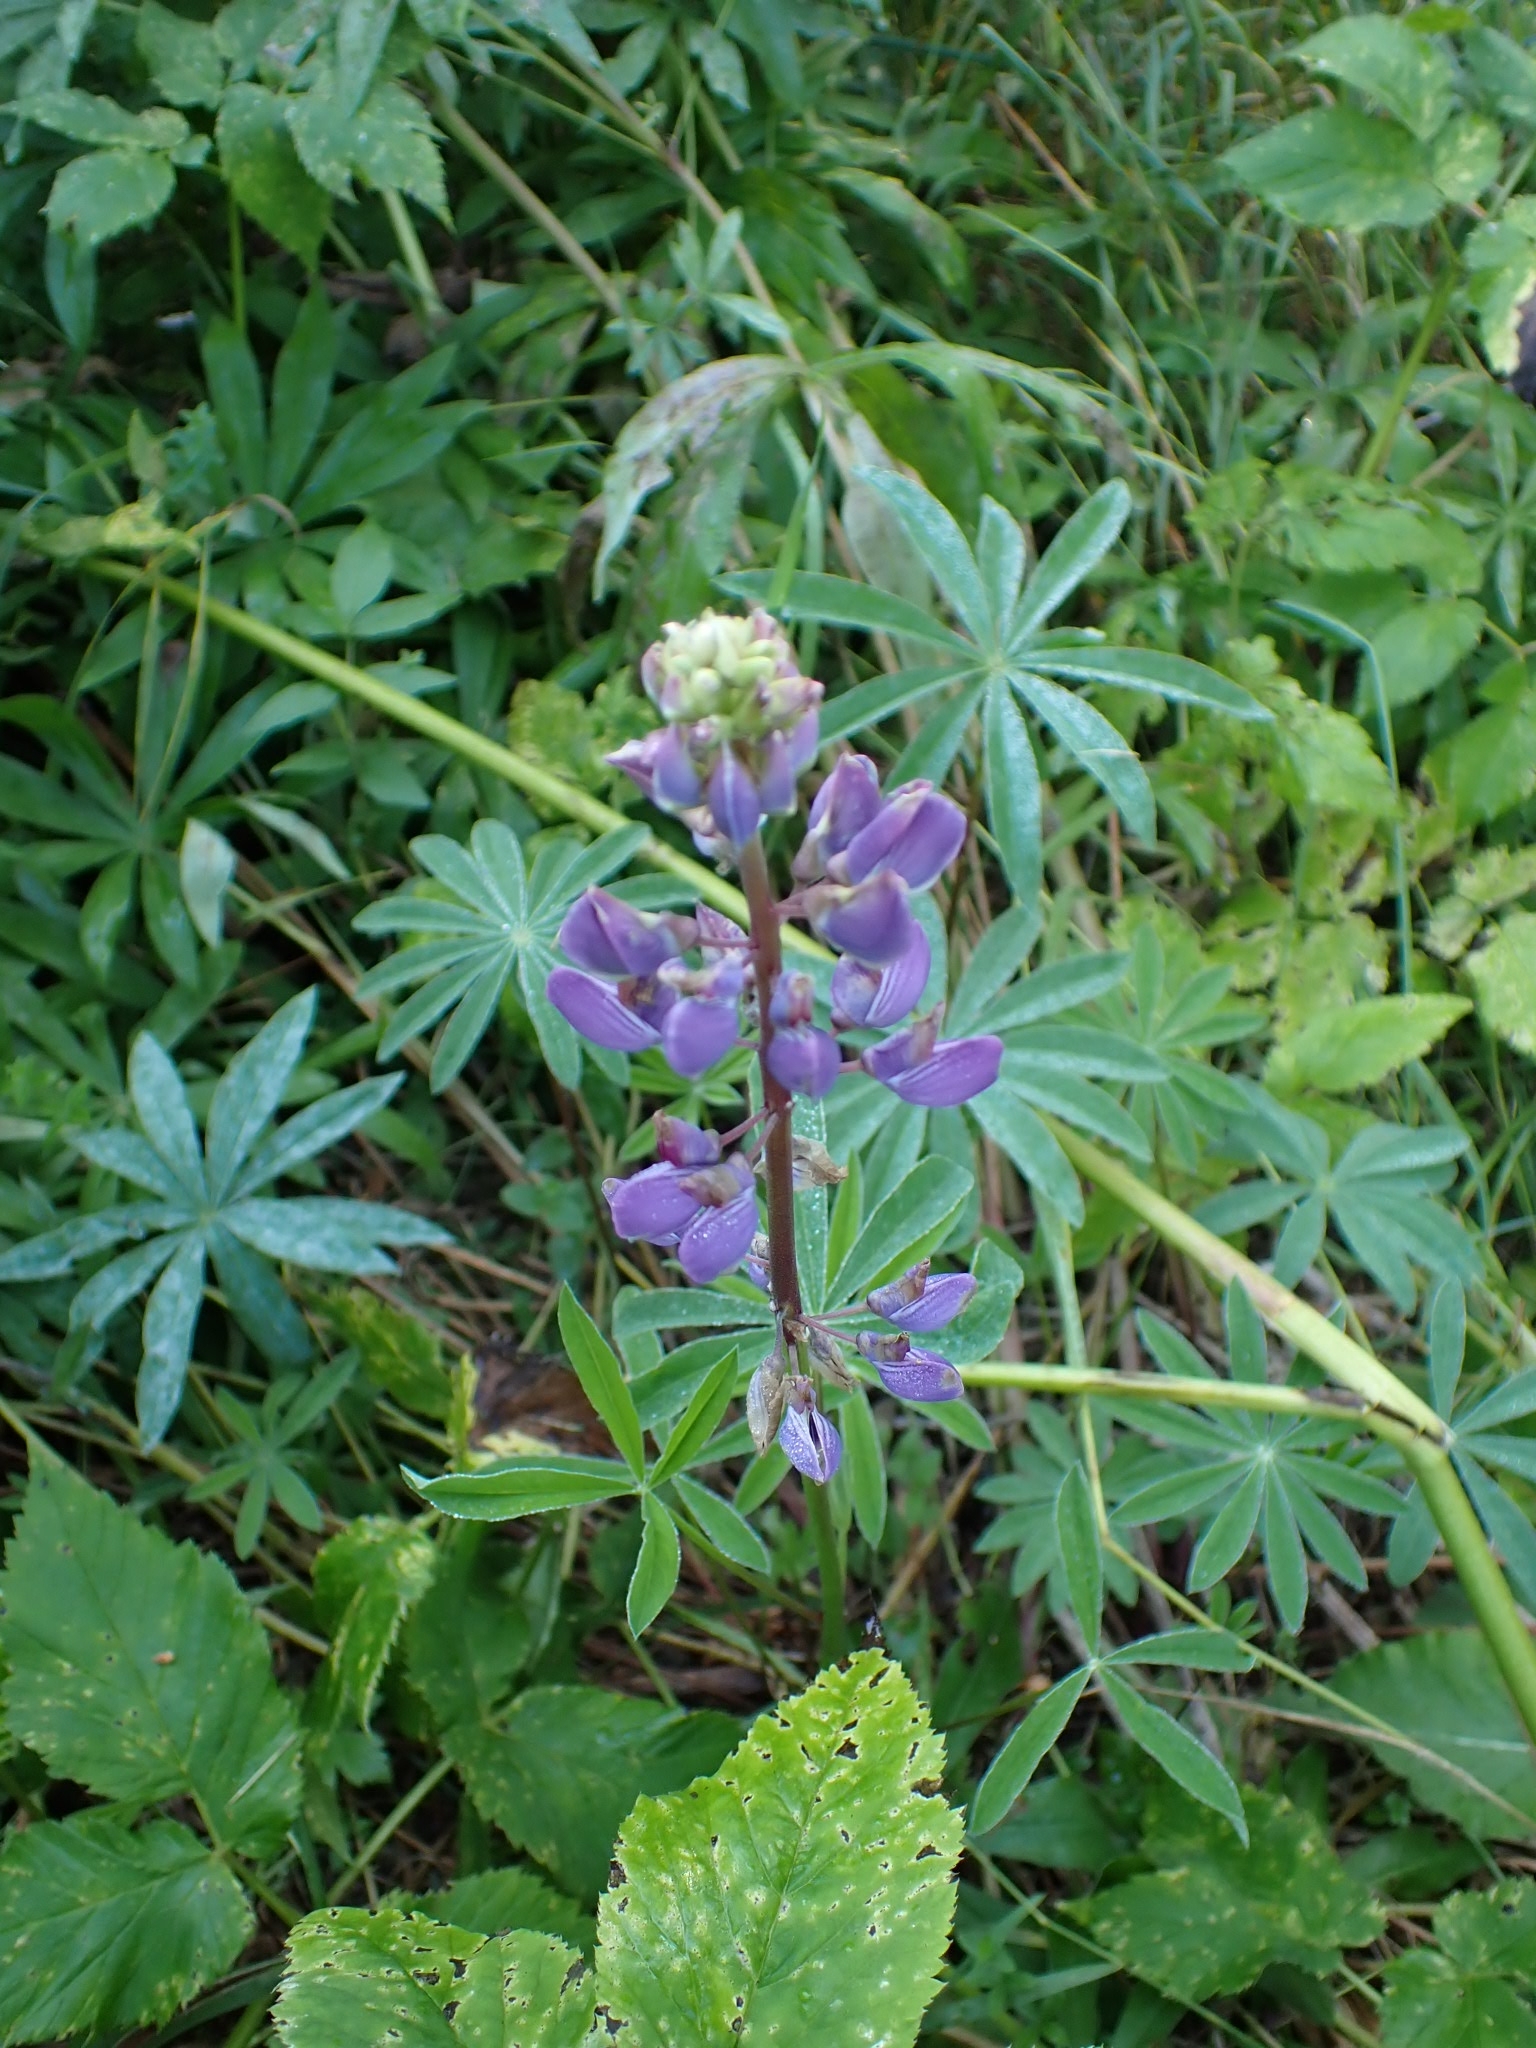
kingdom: Plantae
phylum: Tracheophyta
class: Magnoliopsida
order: Fabales
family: Fabaceae
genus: Lupinus
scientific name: Lupinus polyphyllus
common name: Garden lupin
